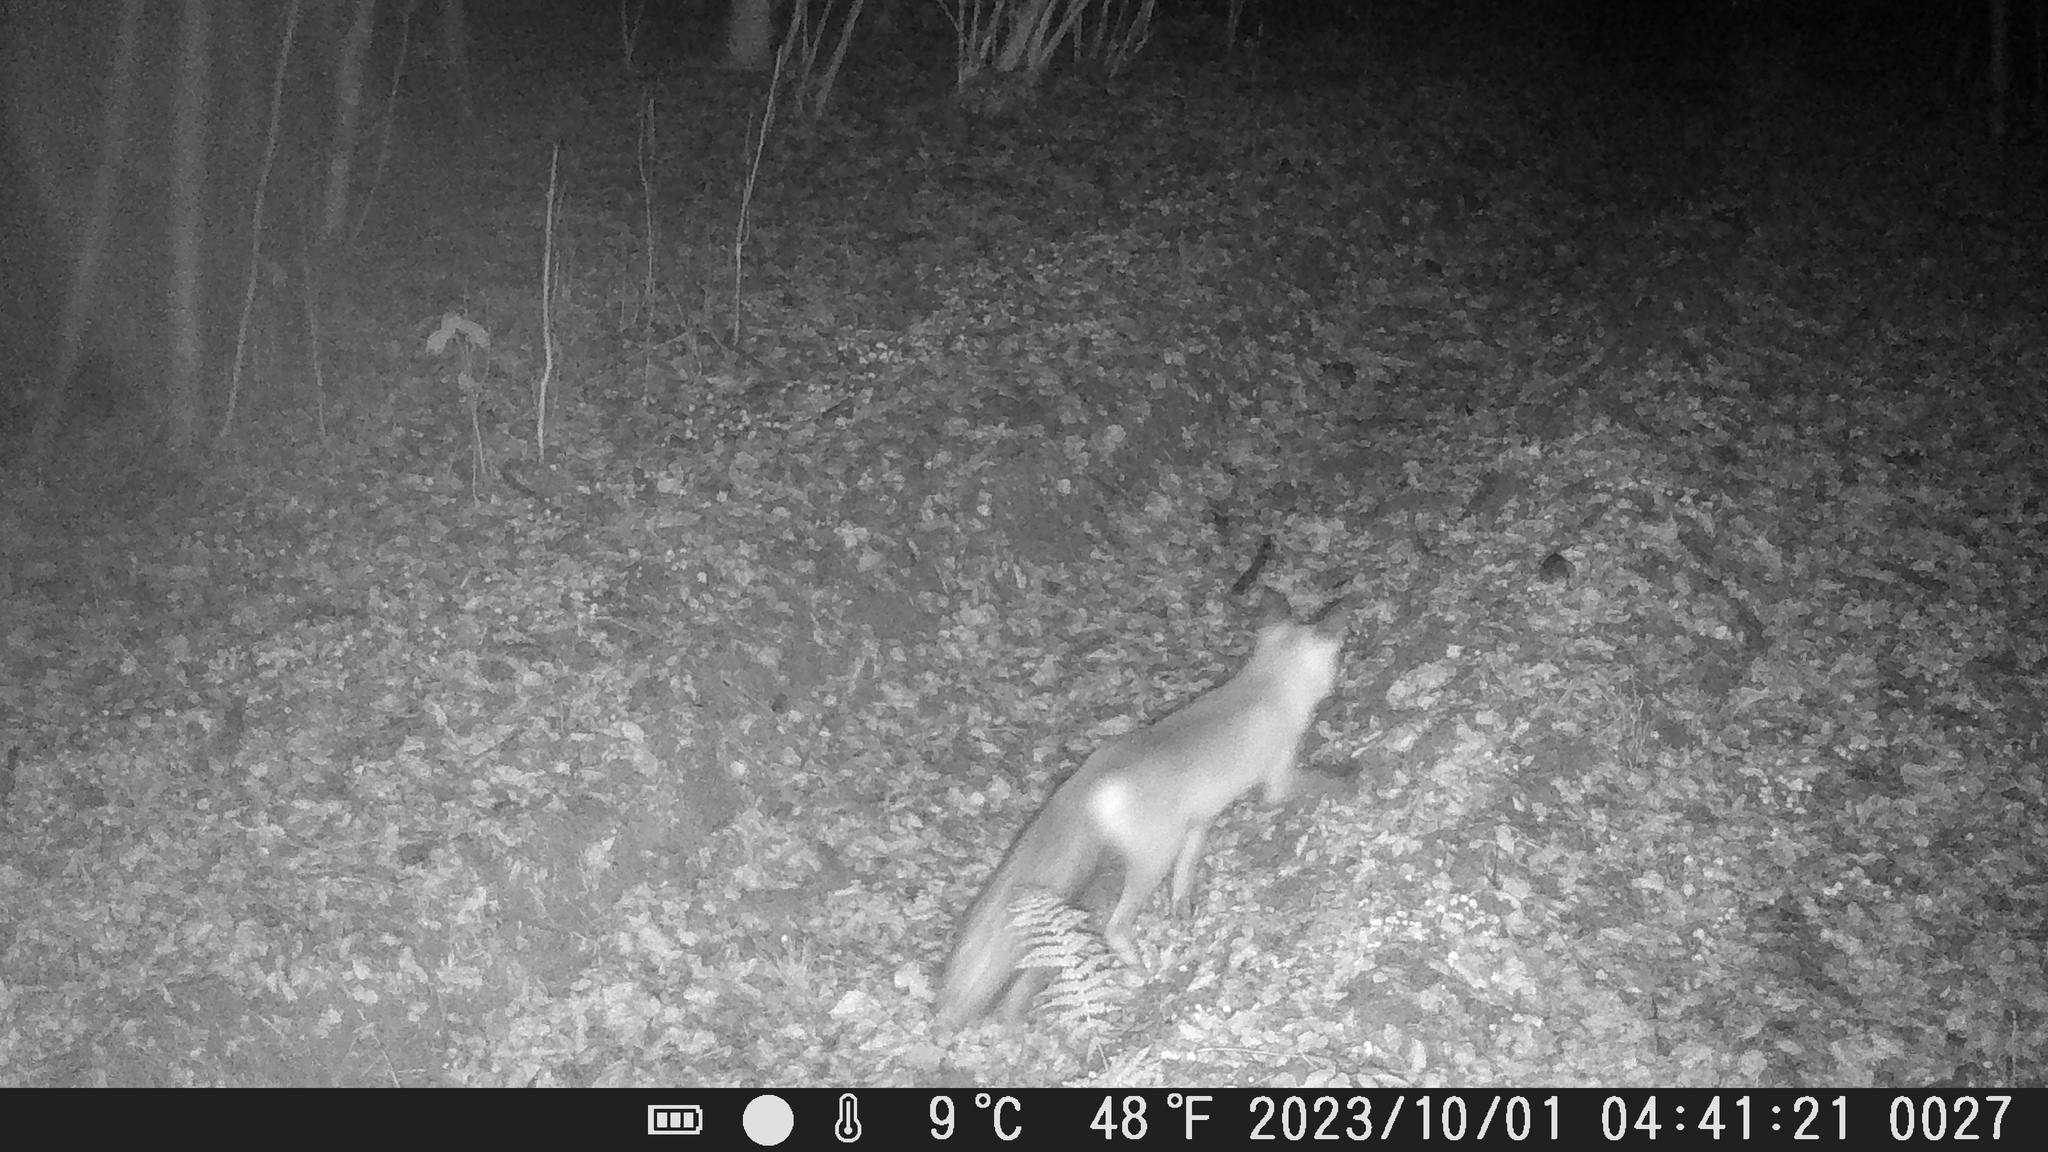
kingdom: Animalia
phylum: Chordata
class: Mammalia
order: Carnivora
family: Canidae
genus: Vulpes
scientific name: Vulpes vulpes
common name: Red fox
